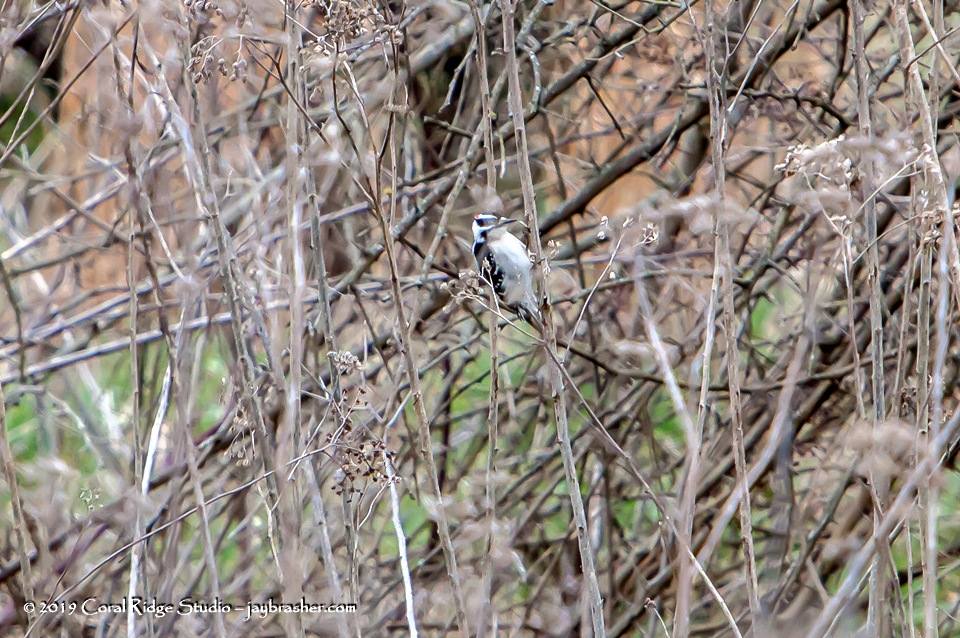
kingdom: Animalia
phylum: Chordata
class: Aves
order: Piciformes
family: Picidae
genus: Dryobates
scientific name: Dryobates pubescens
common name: Downy woodpecker
